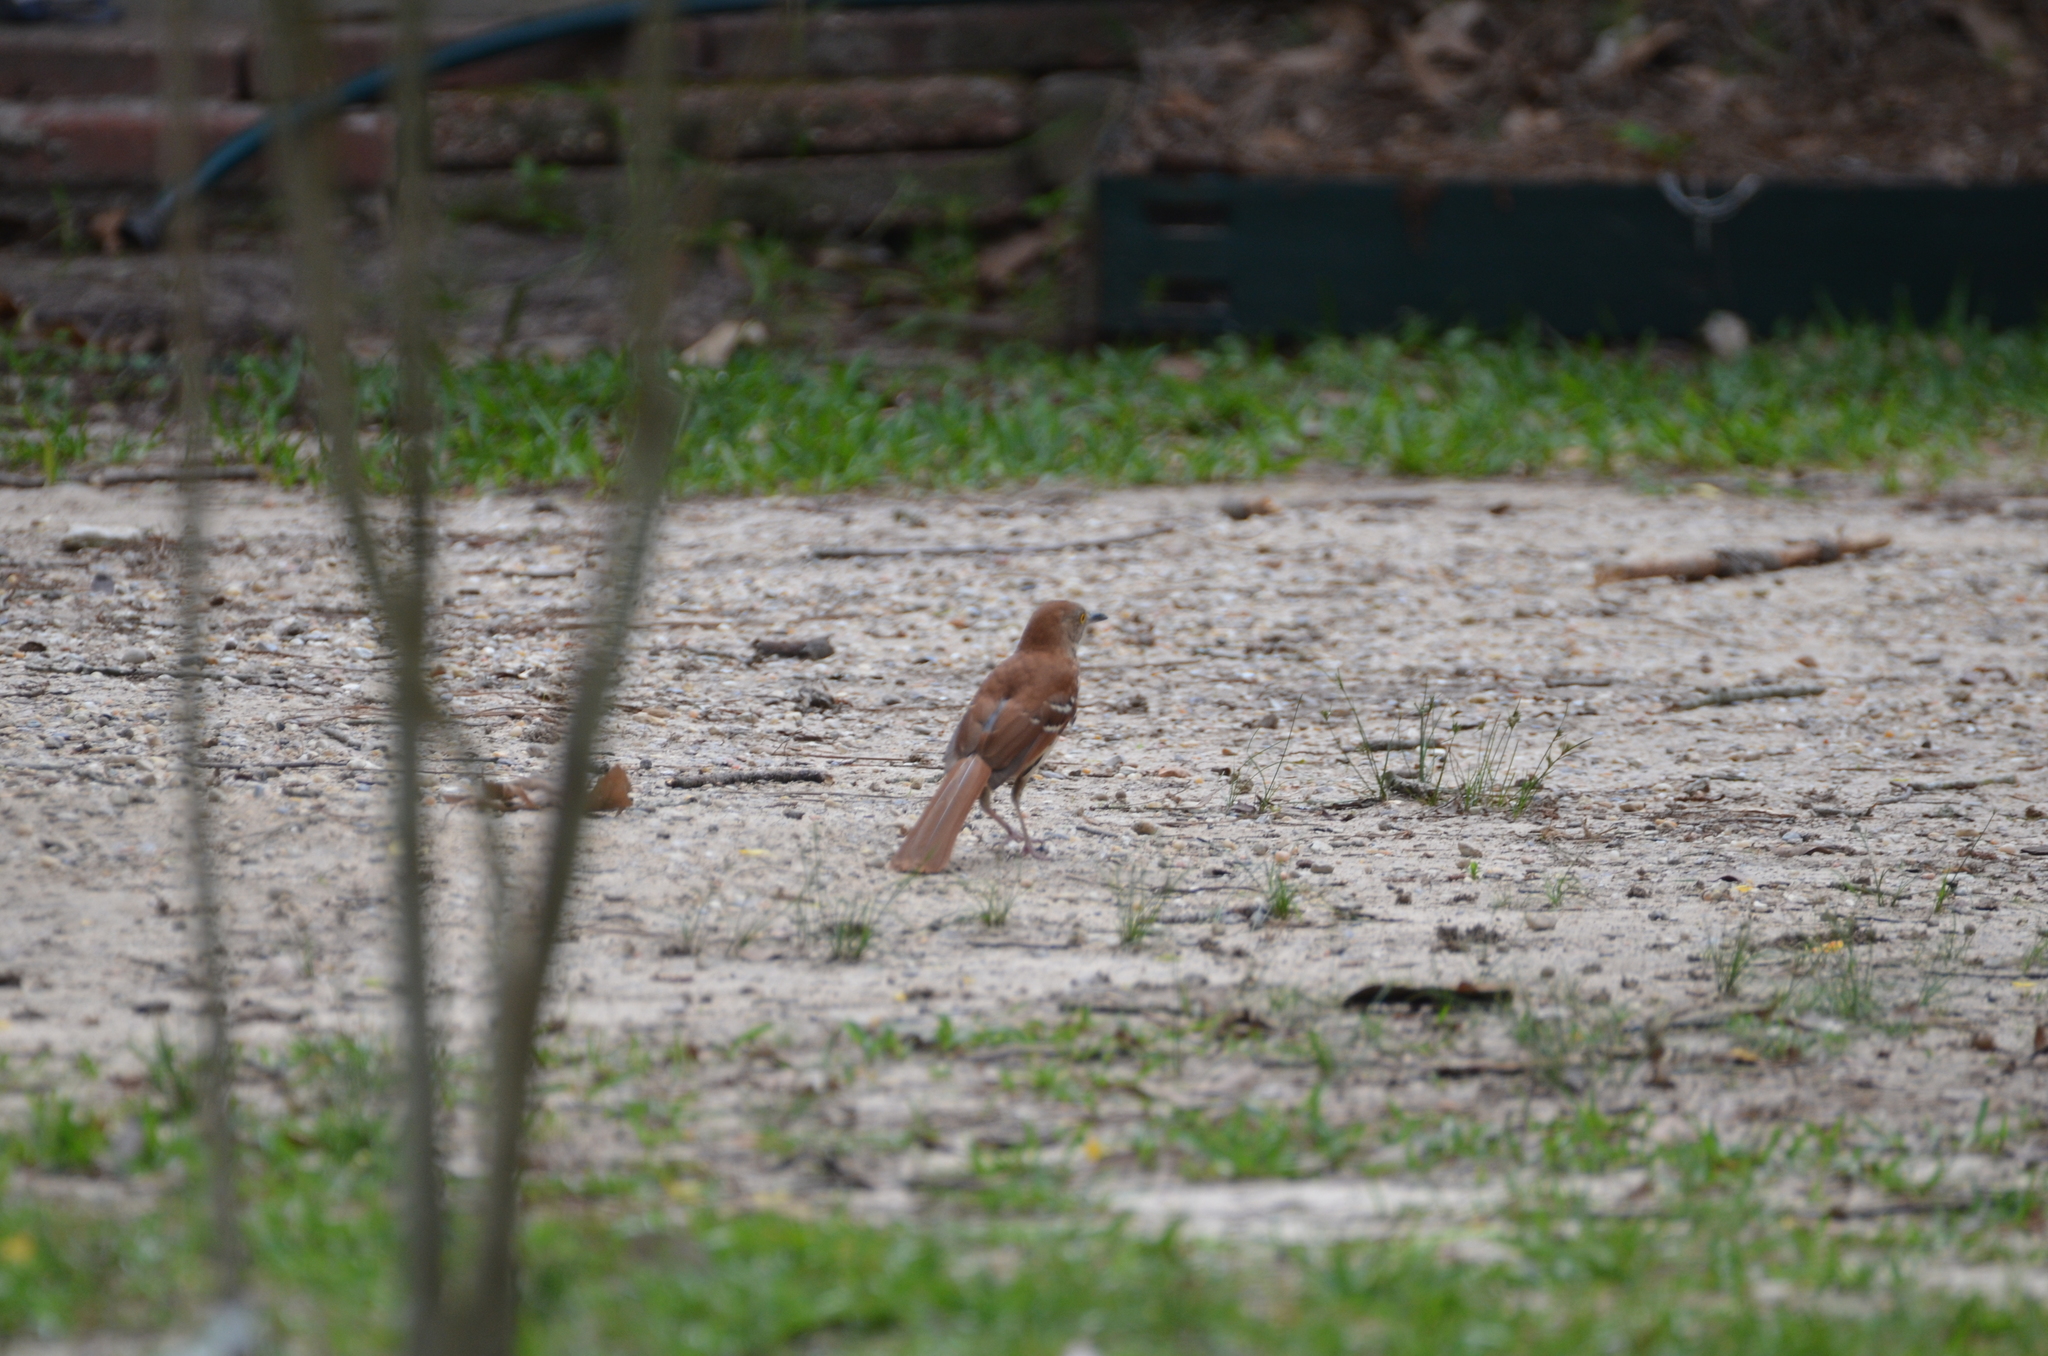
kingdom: Animalia
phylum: Chordata
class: Aves
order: Passeriformes
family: Mimidae
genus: Toxostoma
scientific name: Toxostoma rufum
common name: Brown thrasher
